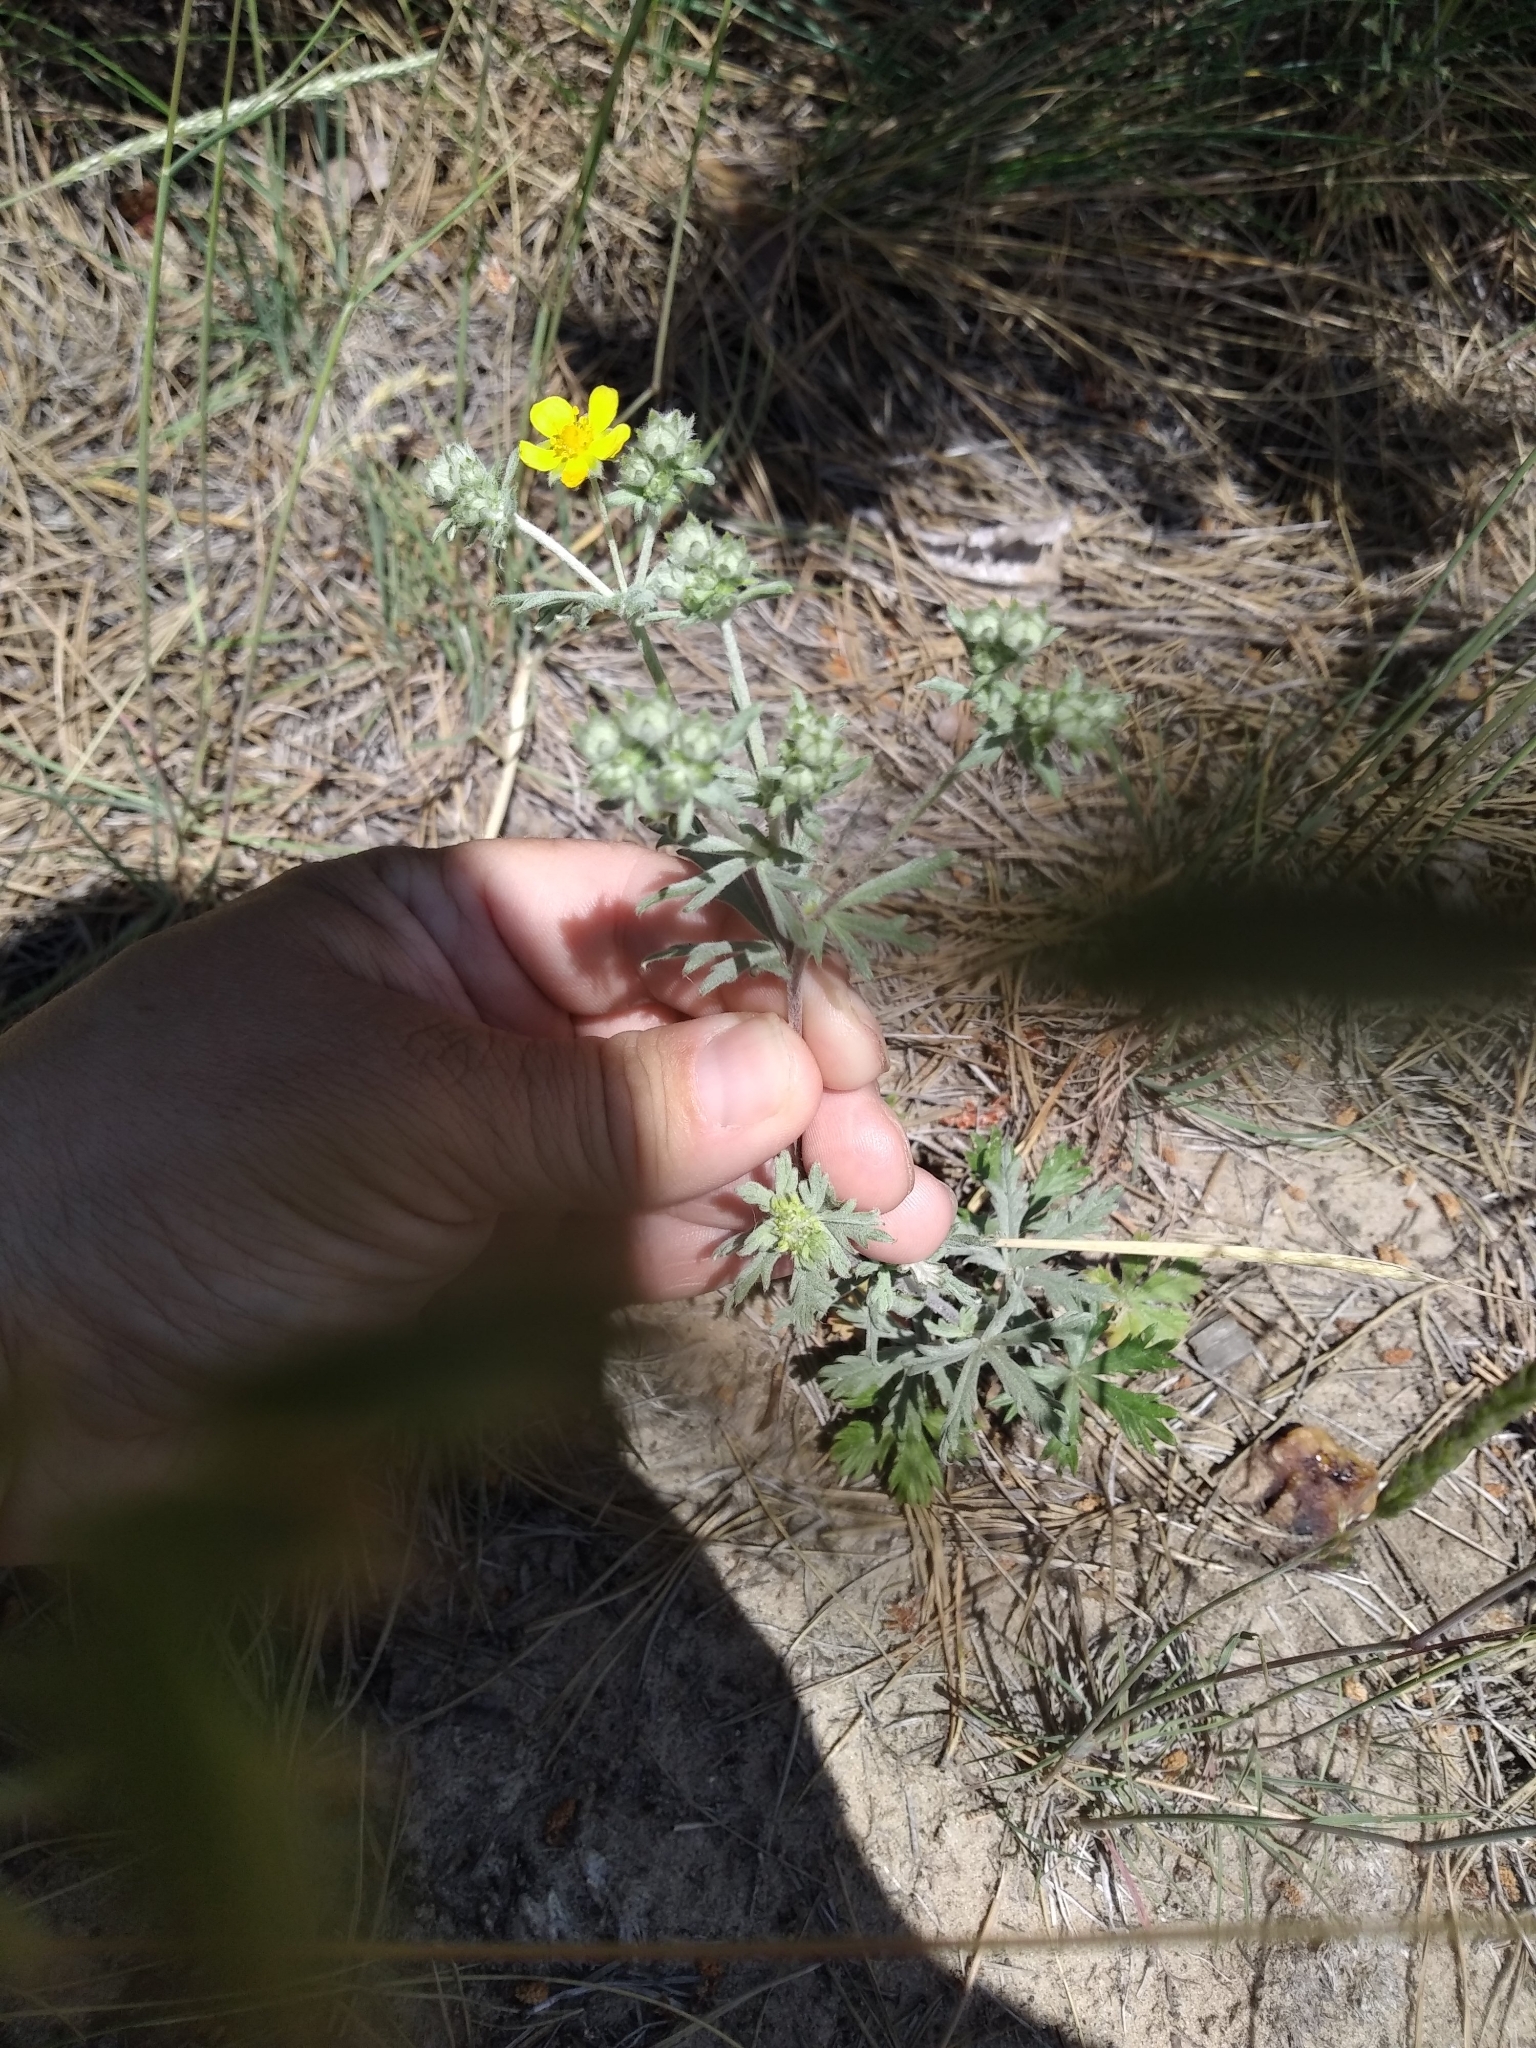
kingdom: Plantae
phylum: Tracheophyta
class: Magnoliopsida
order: Rosales
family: Rosaceae
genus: Potentilla
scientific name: Potentilla argentea
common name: Hoary cinquefoil
